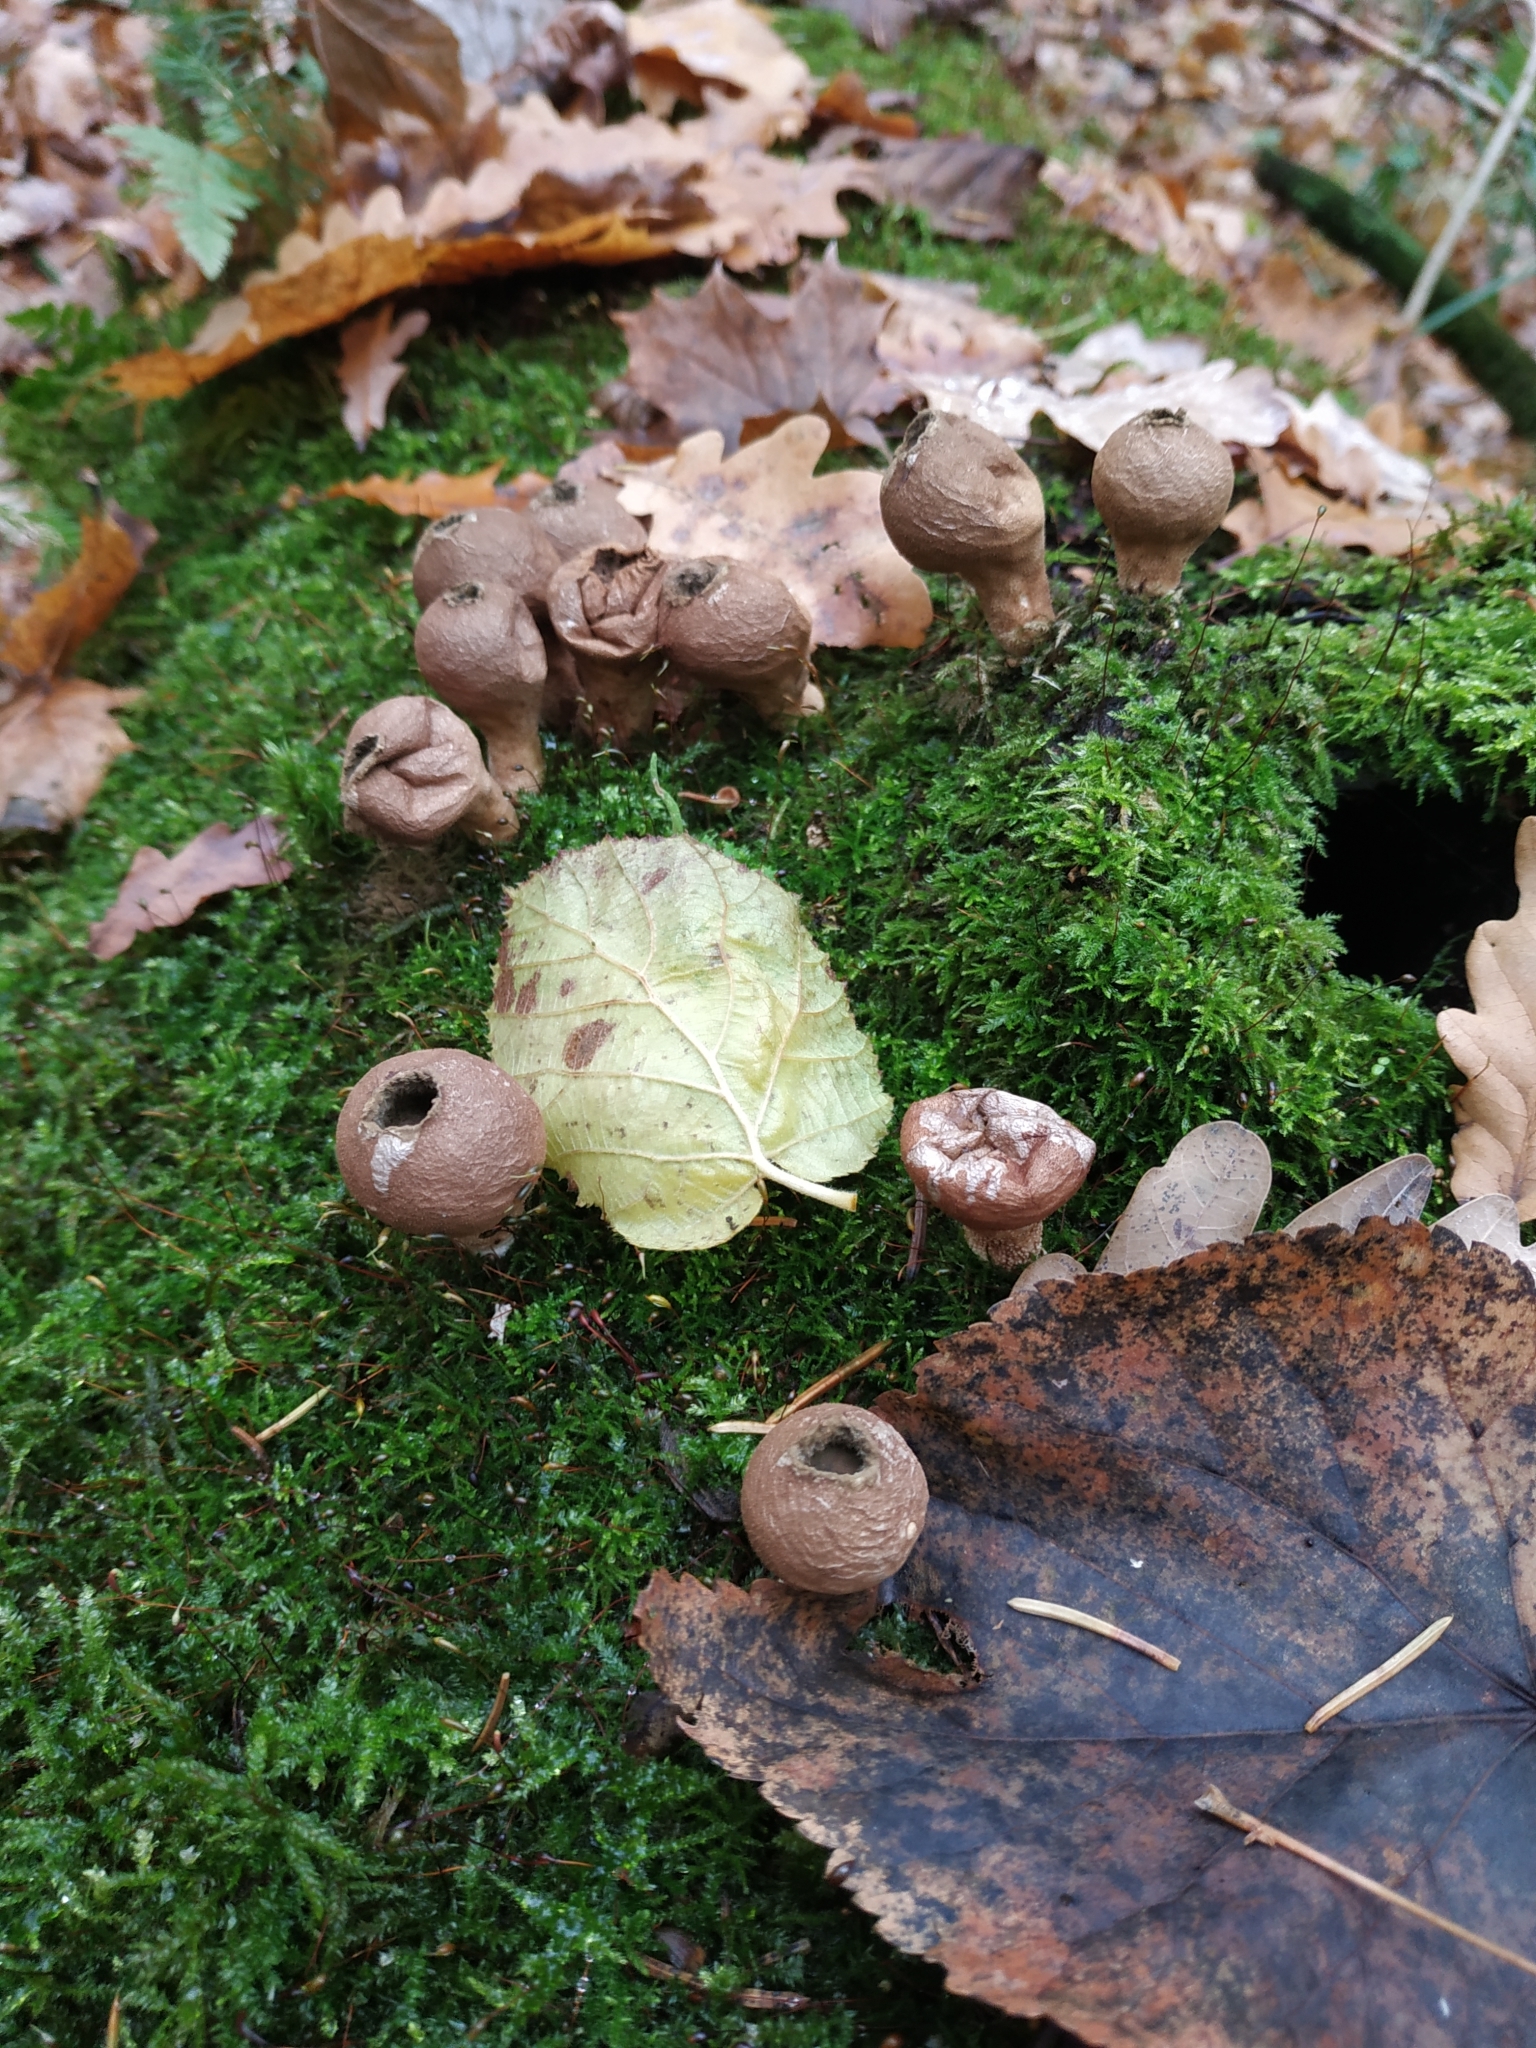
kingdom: Fungi
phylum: Basidiomycota
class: Agaricomycetes
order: Agaricales
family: Lycoperdaceae
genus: Apioperdon
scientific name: Apioperdon pyriforme
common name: Pear-shaped puffball
